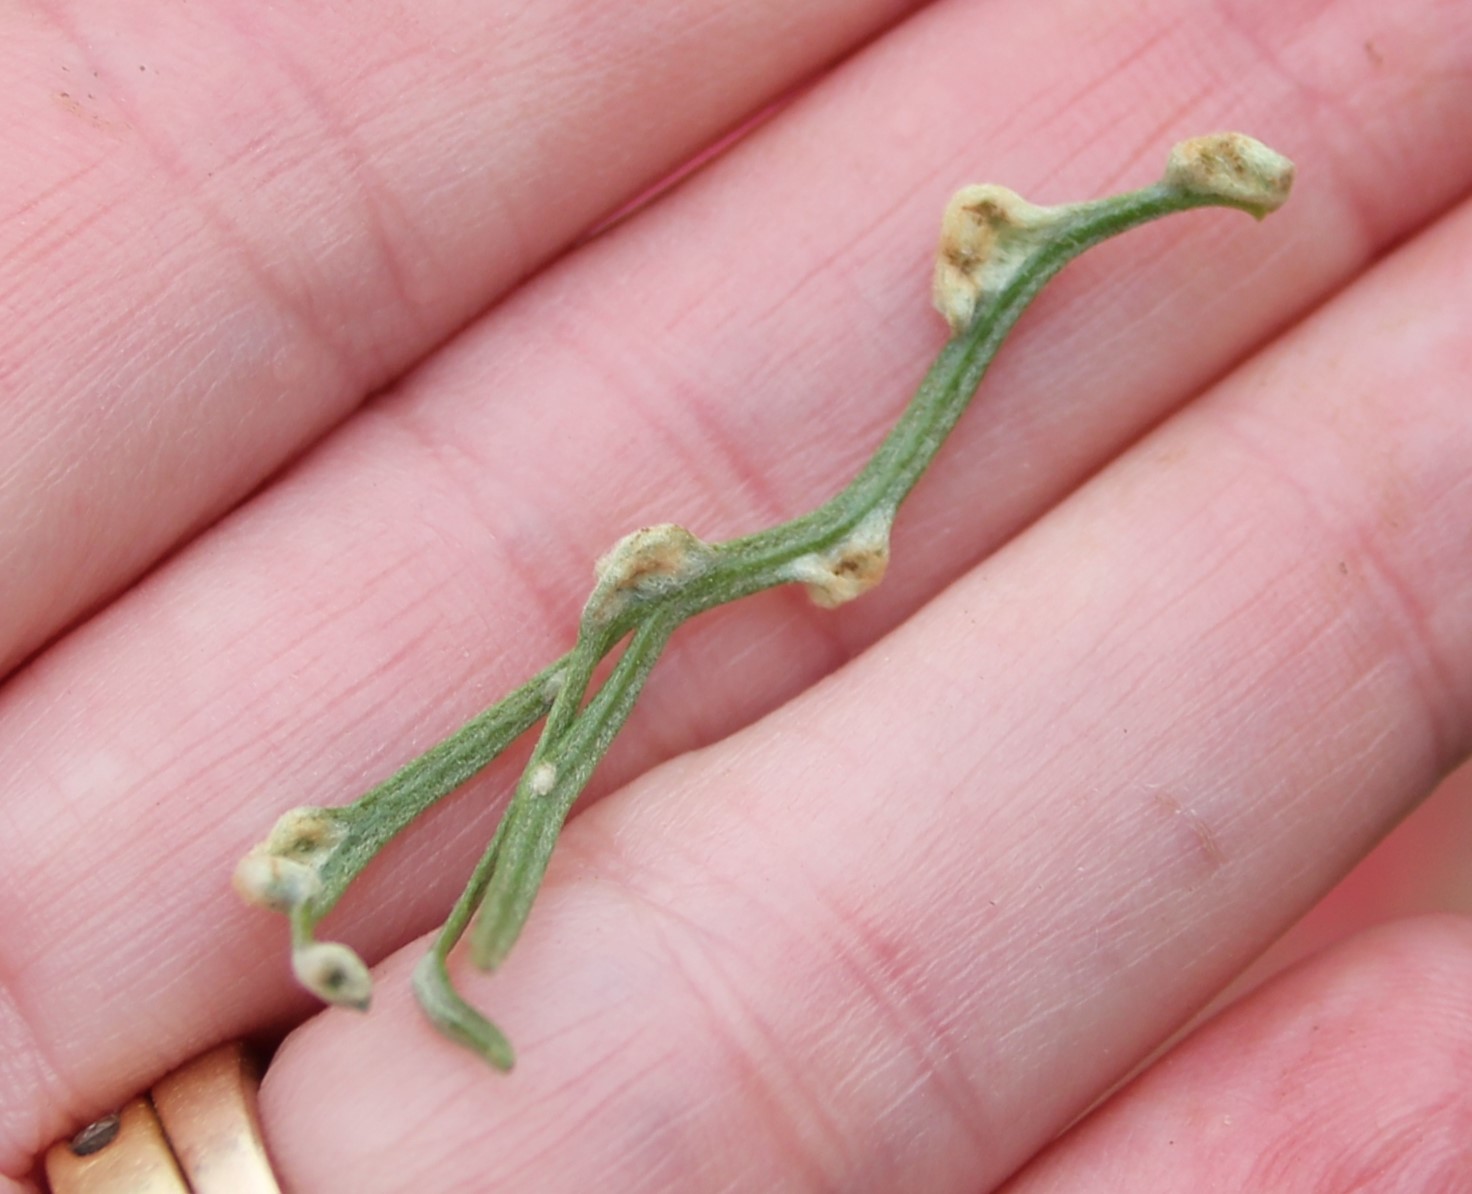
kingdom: Animalia
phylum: Arthropoda
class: Arachnida
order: Trombidiformes
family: Eriophyidae
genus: Aceria
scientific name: Aceria
